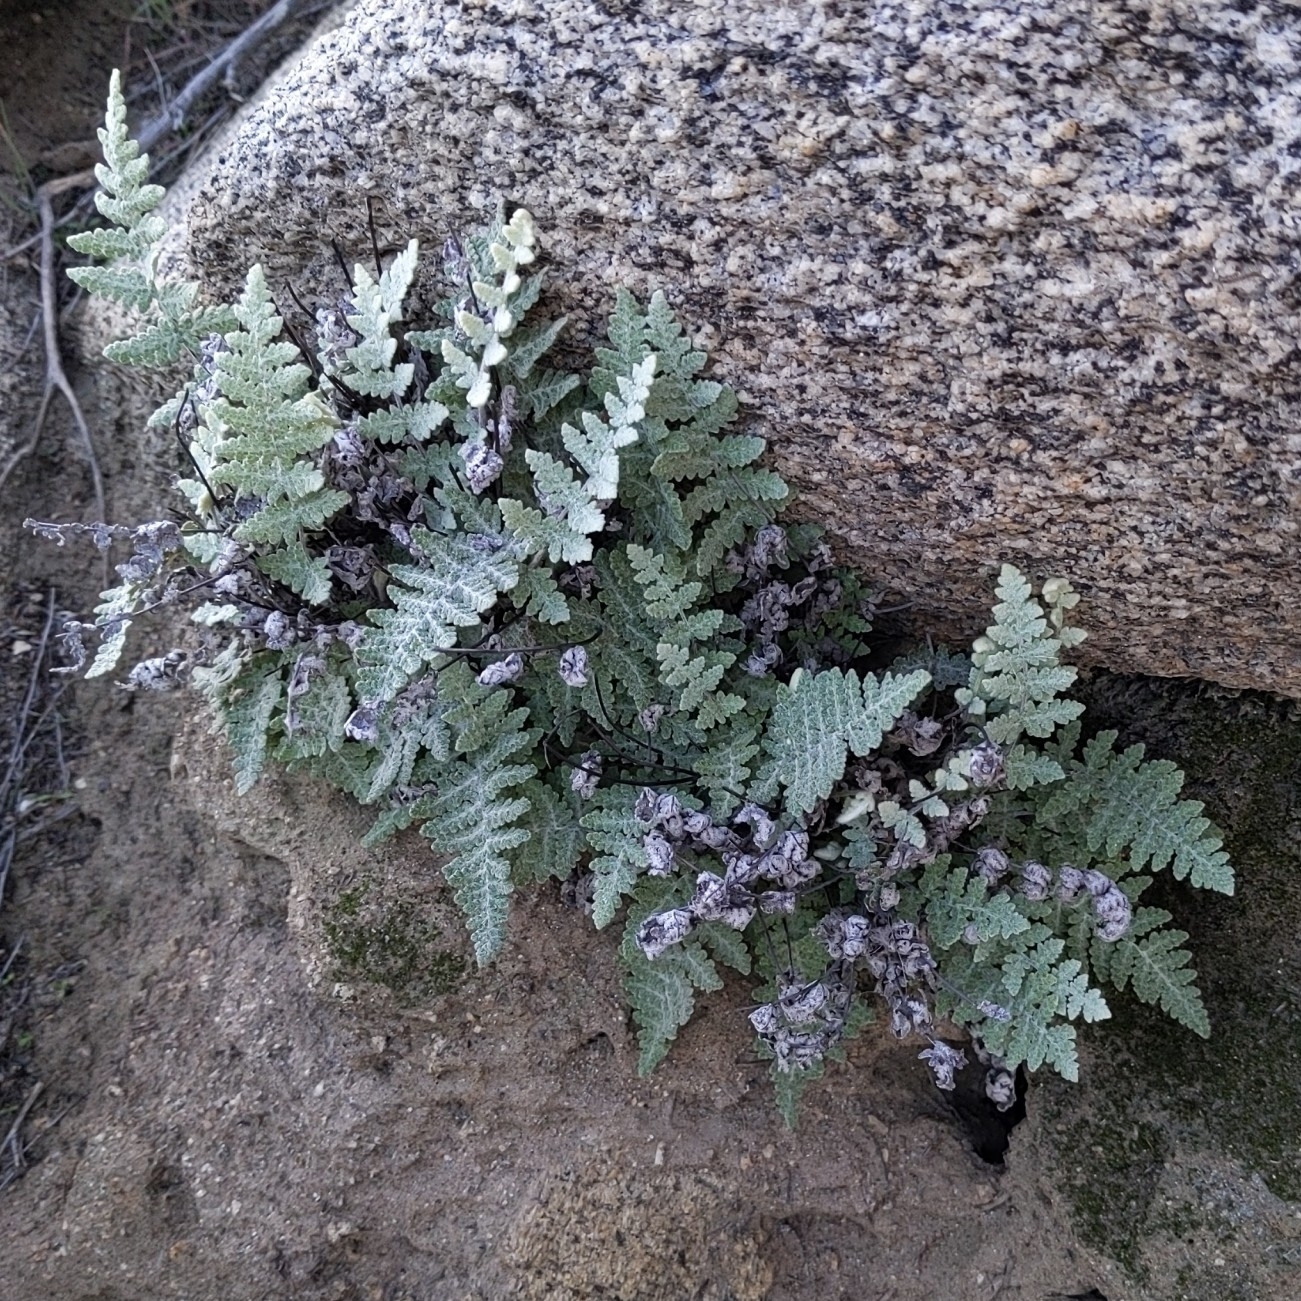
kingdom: Plantae
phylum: Tracheophyta
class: Polypodiopsida
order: Polypodiales
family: Pteridaceae
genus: Myriopteris
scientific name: Myriopteris newberryi
